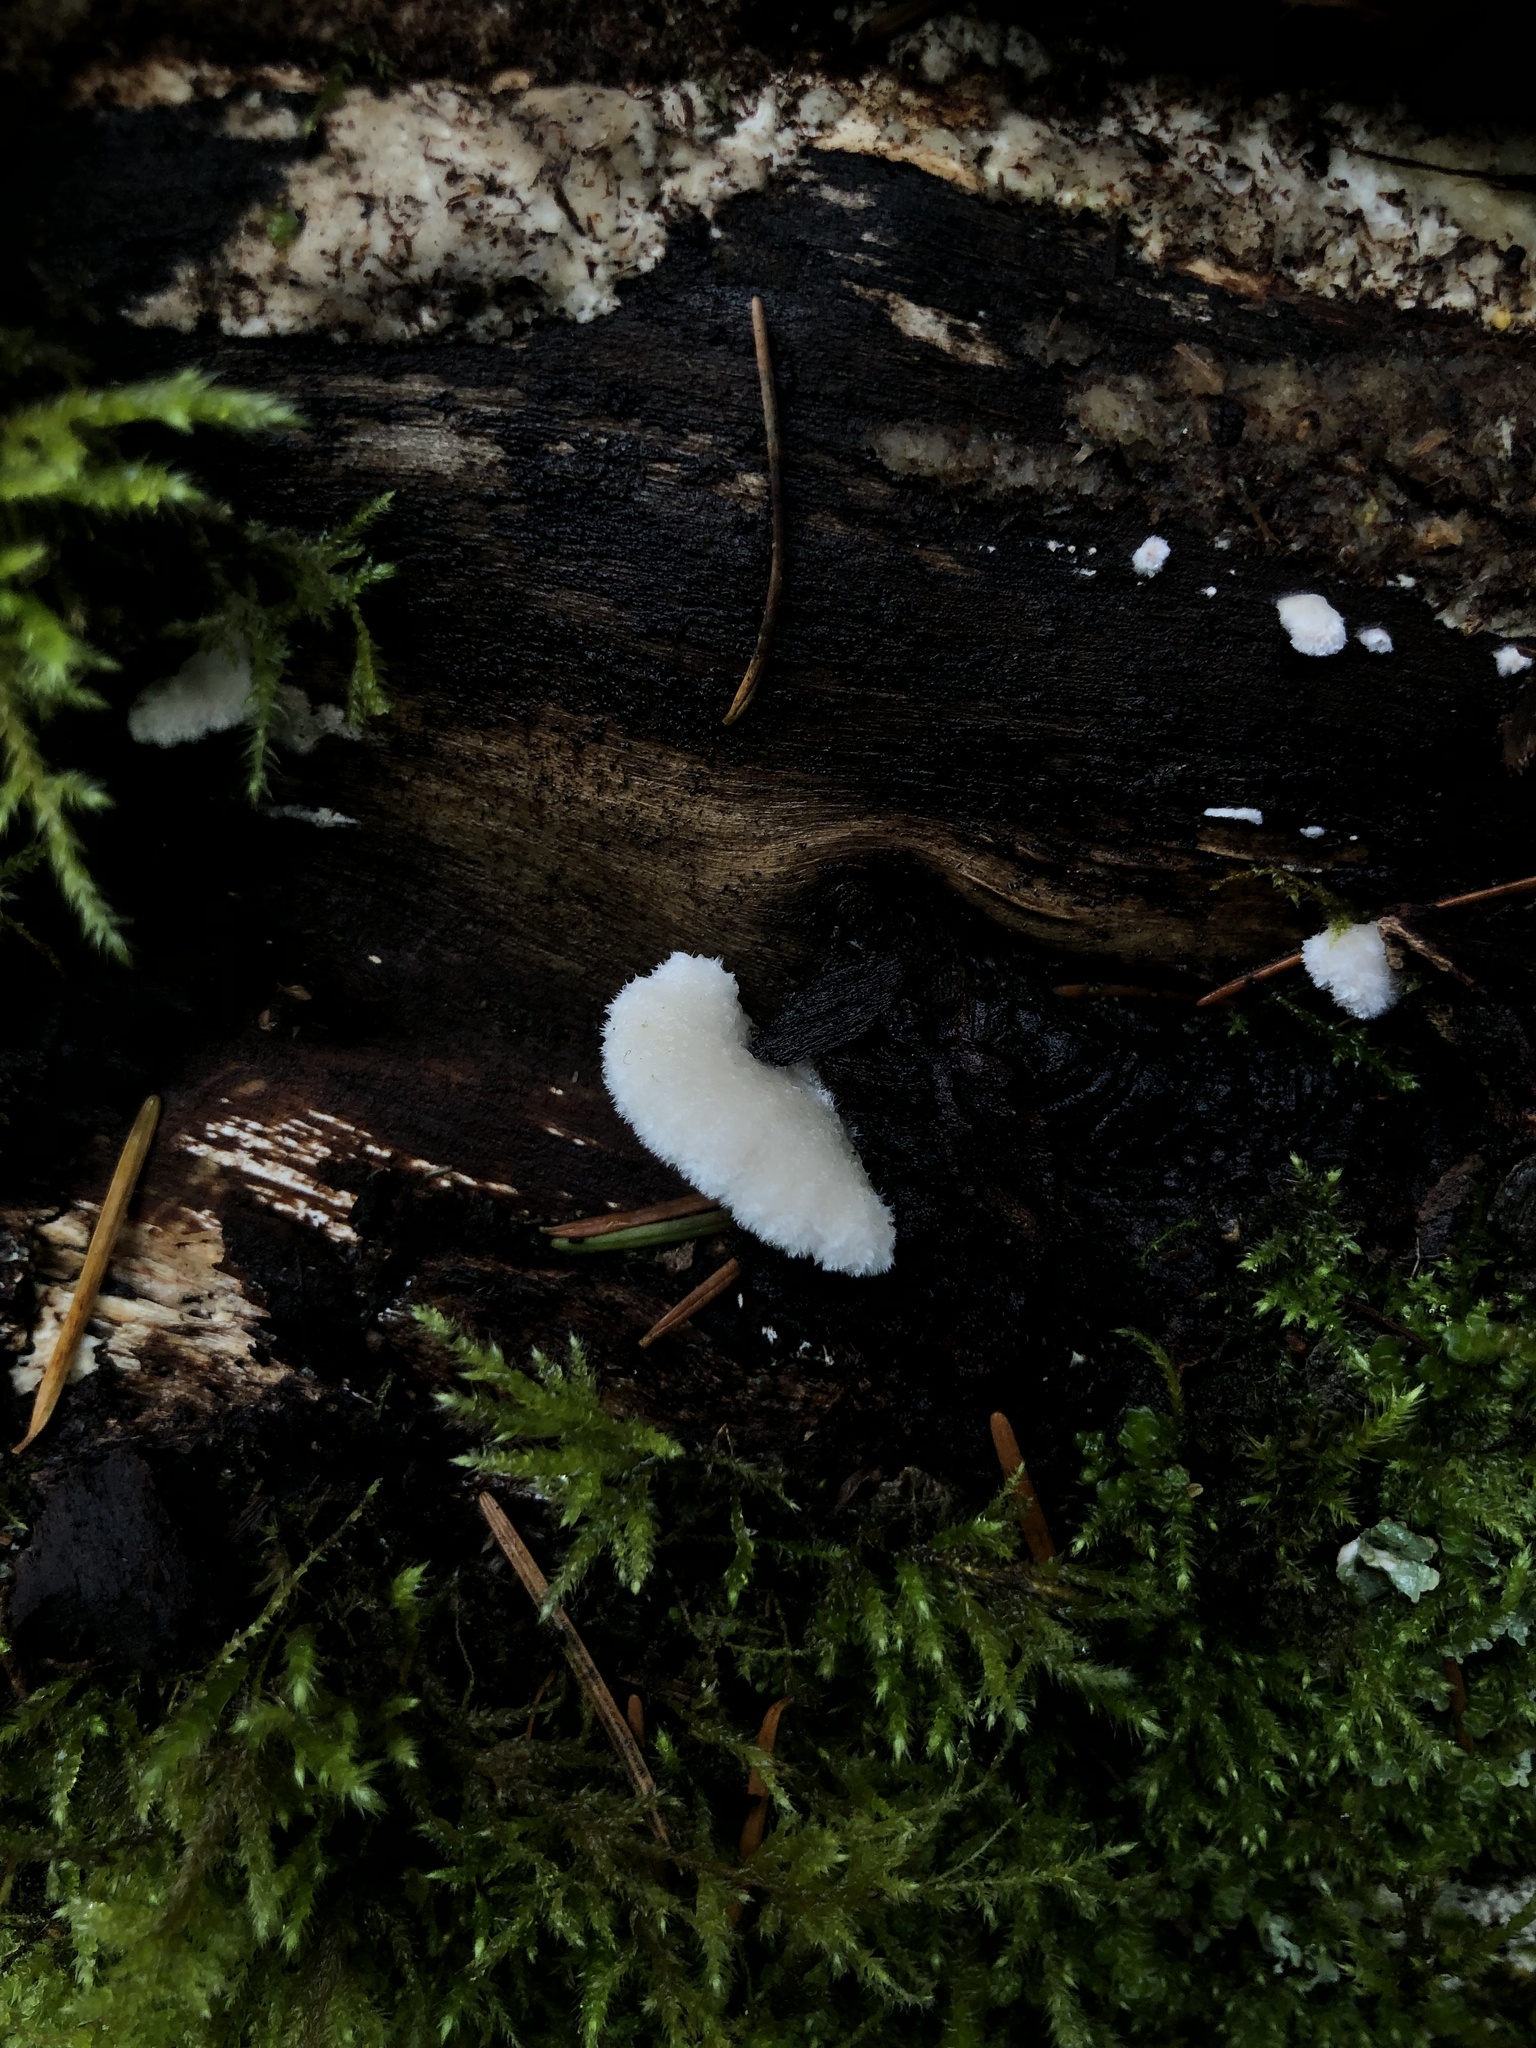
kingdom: Fungi
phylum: Basidiomycota
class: Agaricomycetes
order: Agaricales
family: Schizophyllaceae
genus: Schizophyllum
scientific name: Schizophyllum commune
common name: Common porecrust
